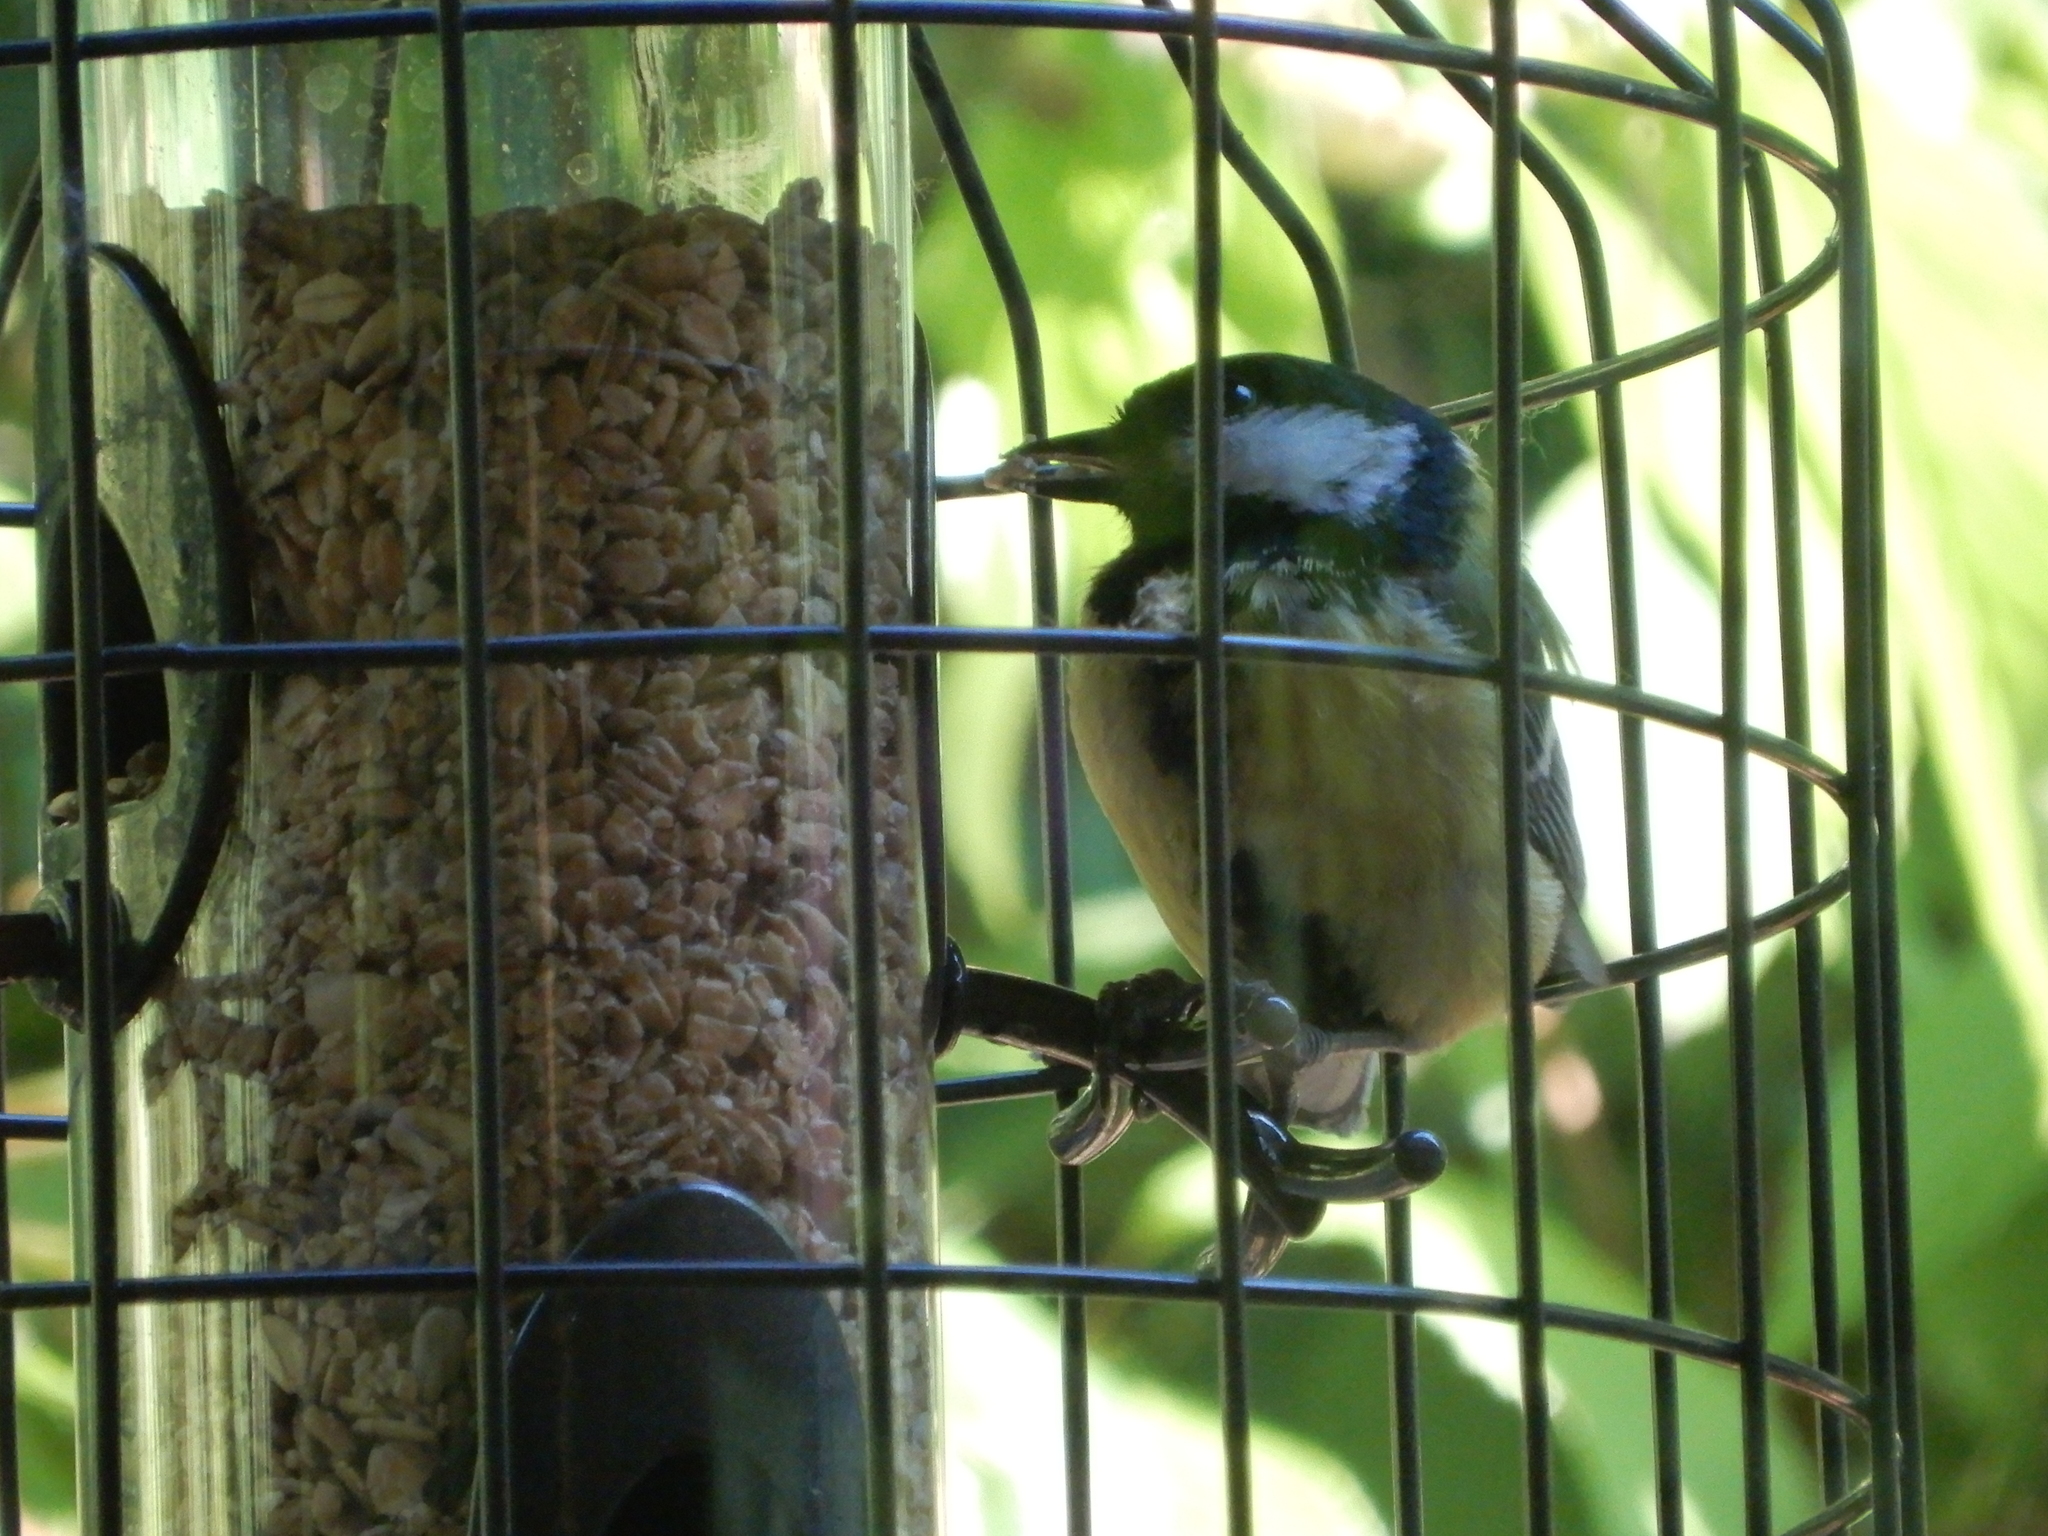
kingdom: Animalia
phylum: Chordata
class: Aves
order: Passeriformes
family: Paridae
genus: Parus
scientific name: Parus major
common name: Great tit
